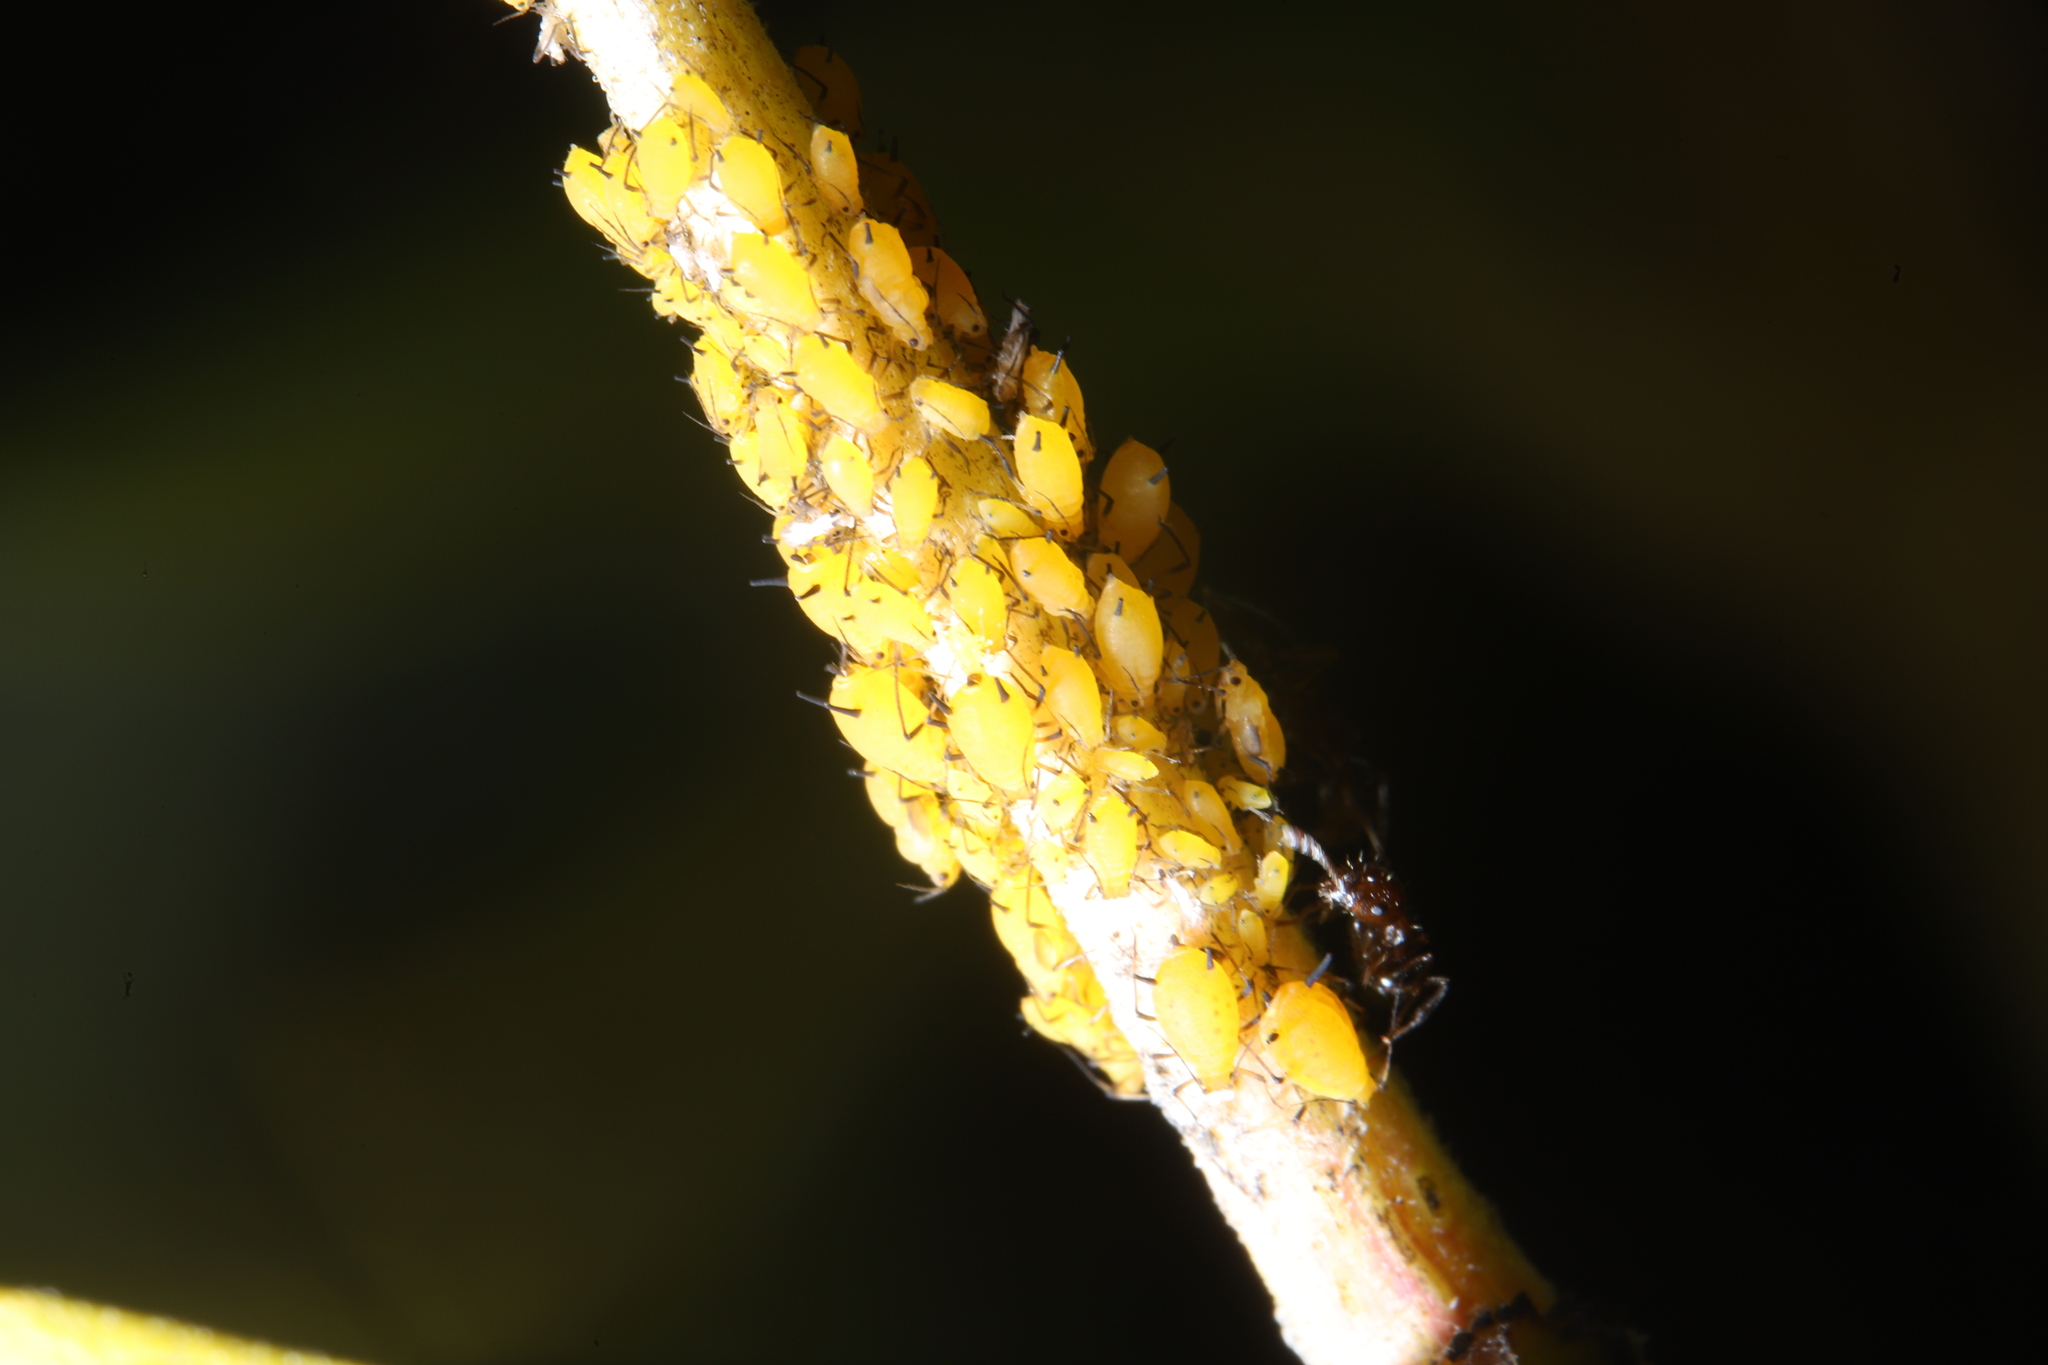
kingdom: Animalia
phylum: Arthropoda
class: Insecta
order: Hemiptera
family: Aphididae
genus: Aphis
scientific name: Aphis nerii
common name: Oleander aphid
